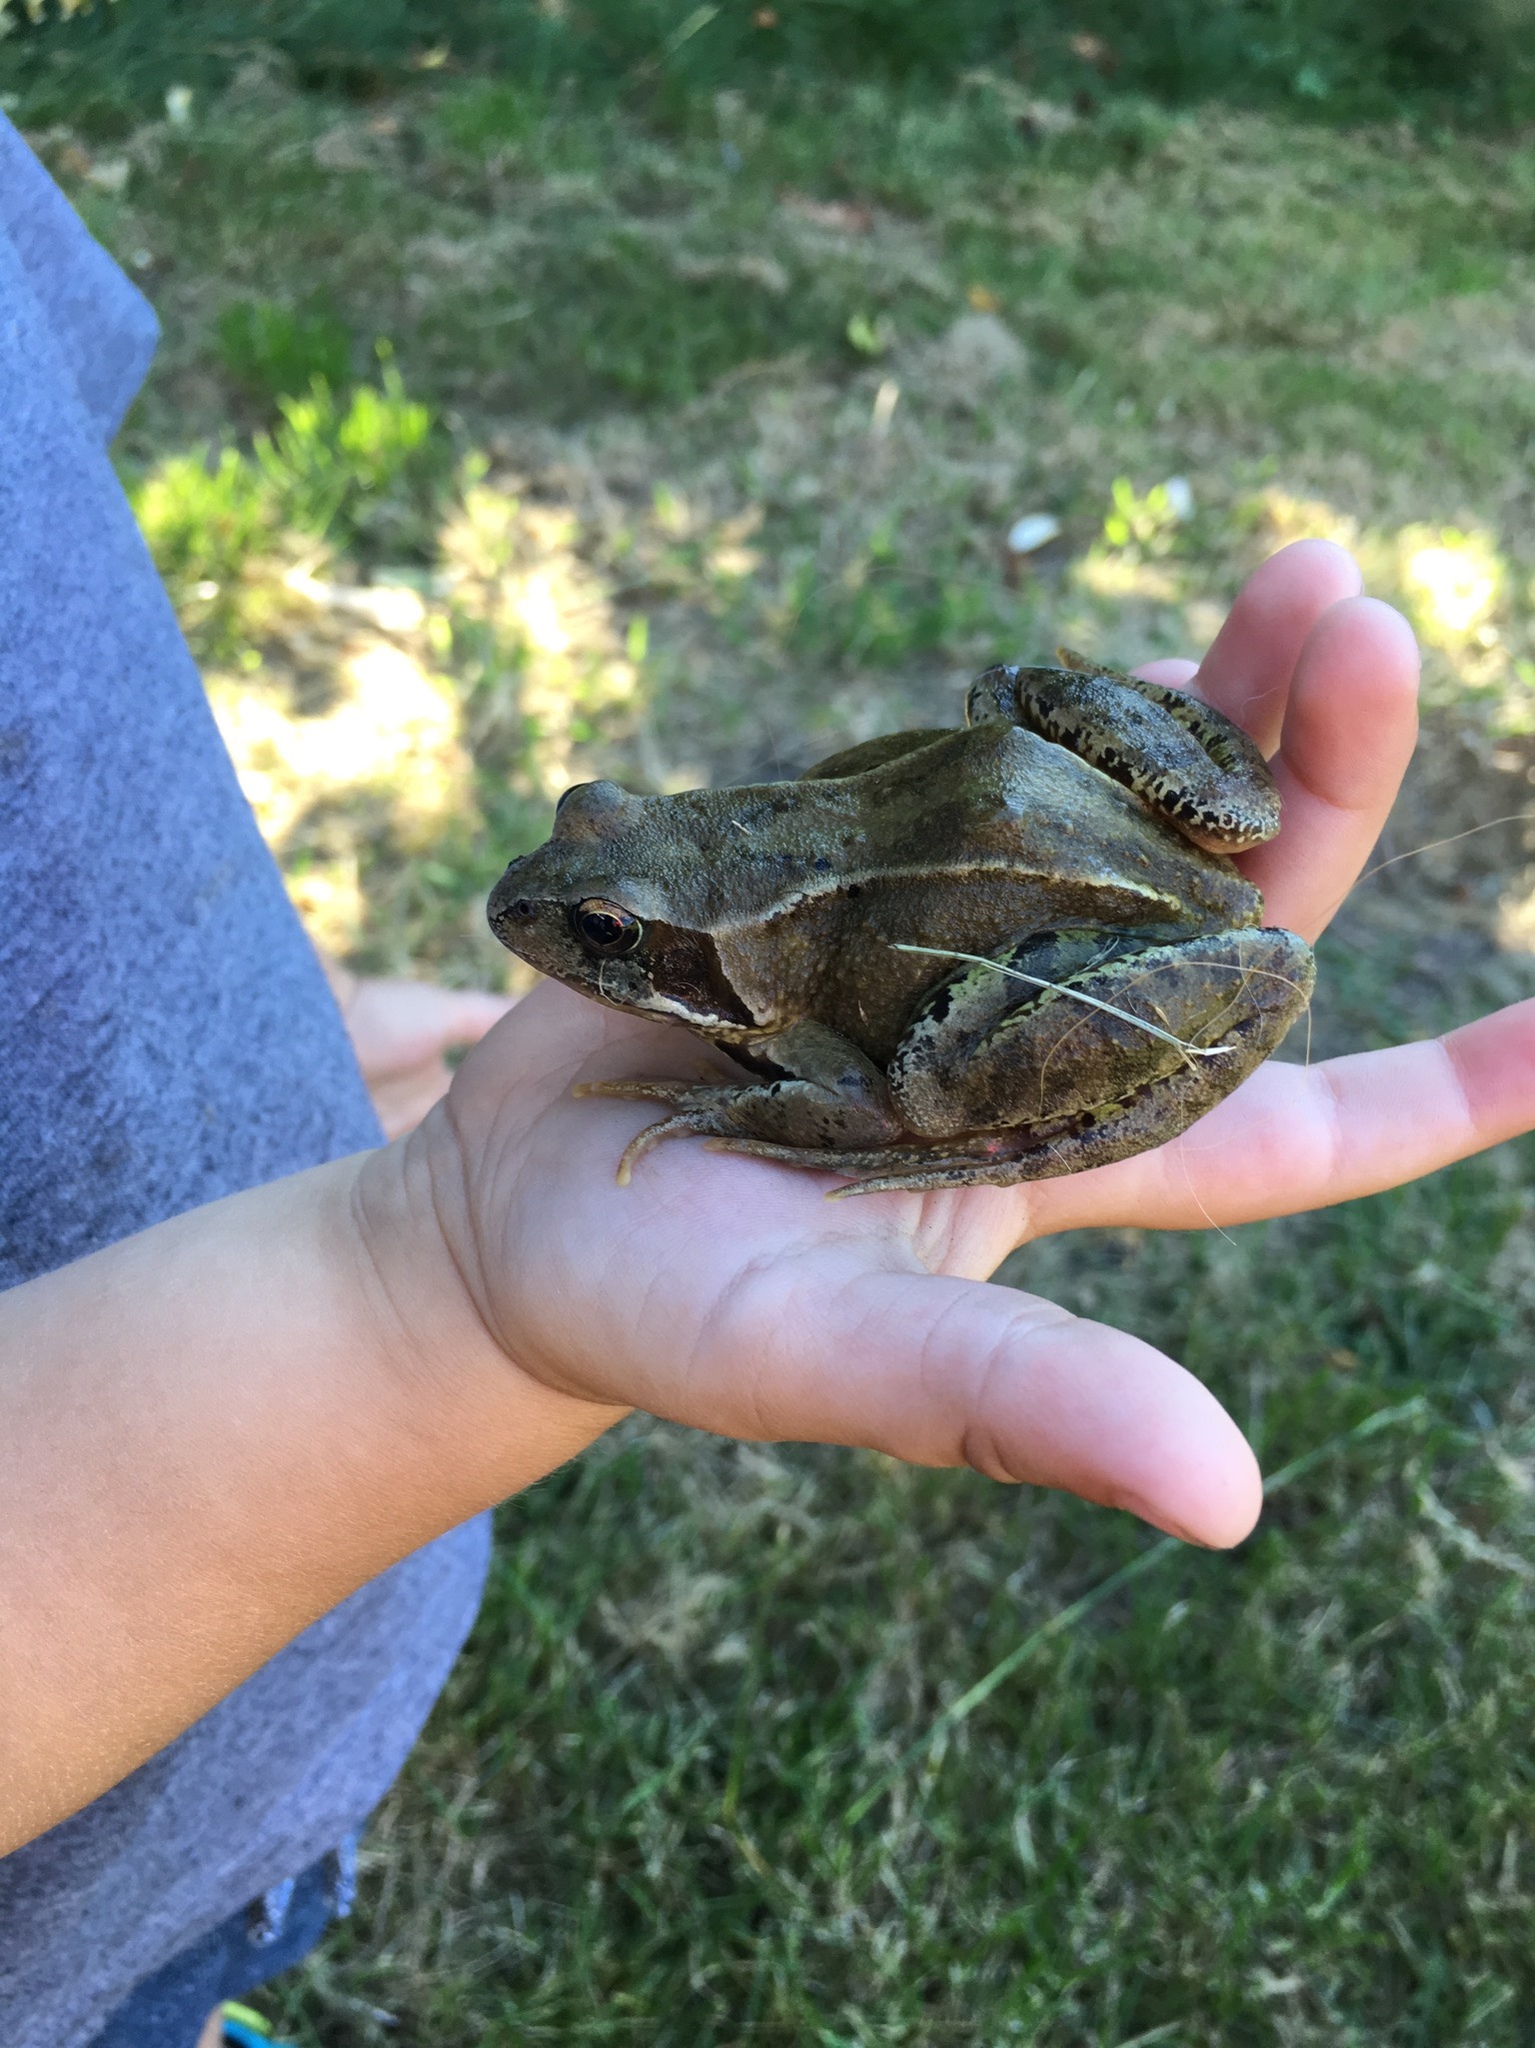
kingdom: Animalia
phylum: Chordata
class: Amphibia
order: Anura
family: Ranidae
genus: Rana
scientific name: Rana temporaria
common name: Common frog
